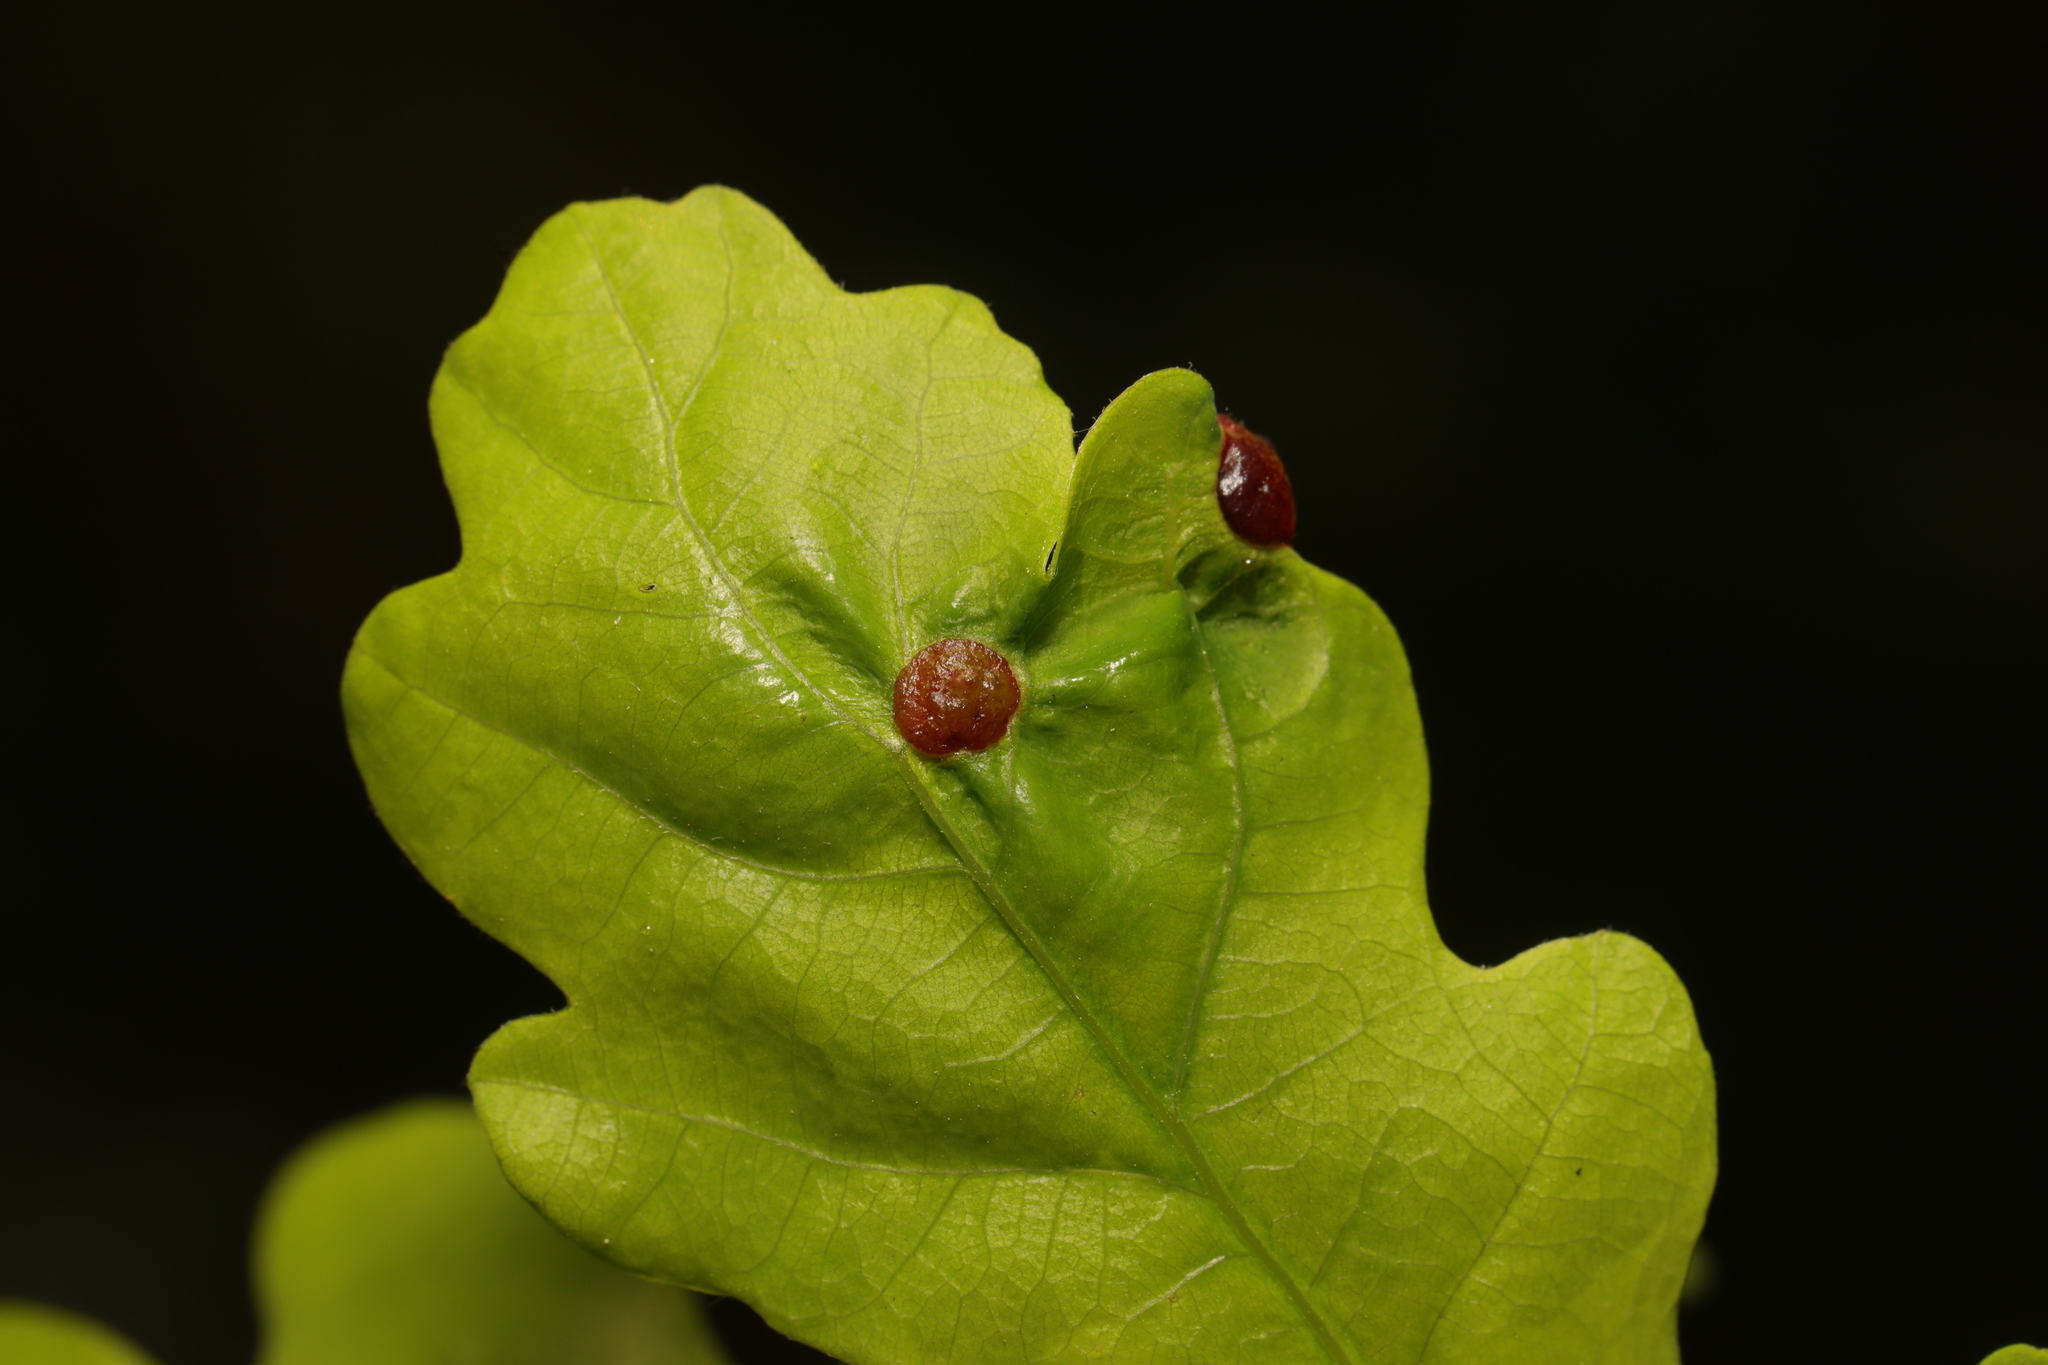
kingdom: Animalia
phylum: Arthropoda
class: Insecta
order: Hymenoptera
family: Cynipidae
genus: Neuroterus
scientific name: Neuroterus quercusbaccarum
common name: Common spangle gall
